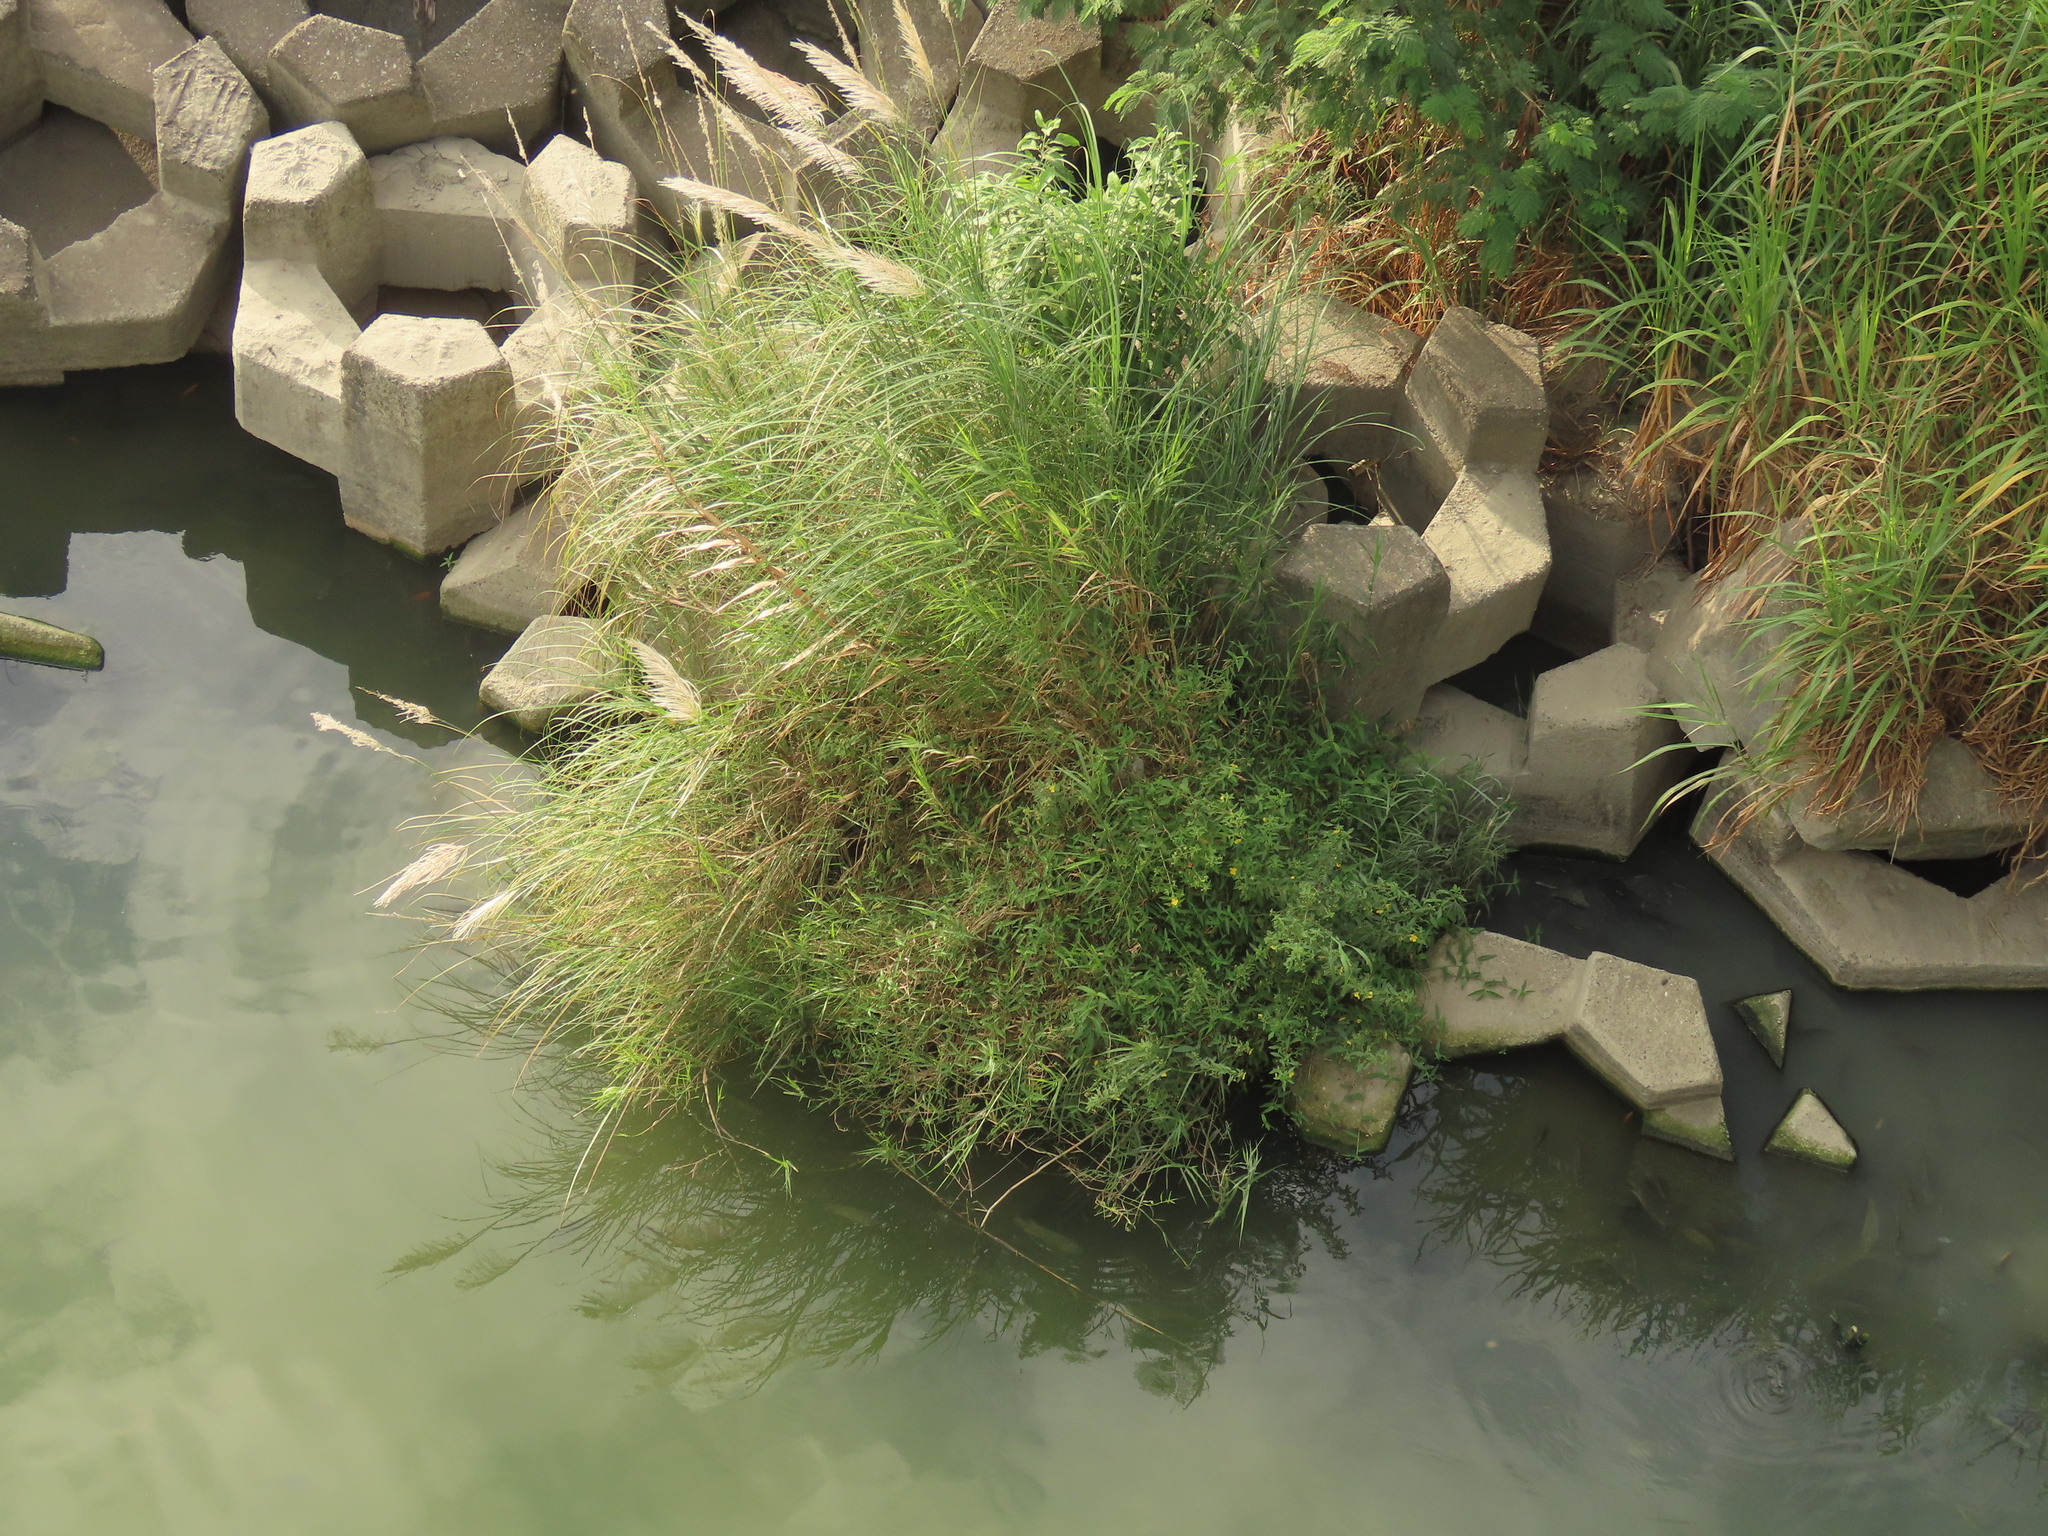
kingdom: Plantae
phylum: Tracheophyta
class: Magnoliopsida
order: Myrtales
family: Onagraceae
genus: Ludwigia
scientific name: Ludwigia octovalvis
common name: Water-primrose
